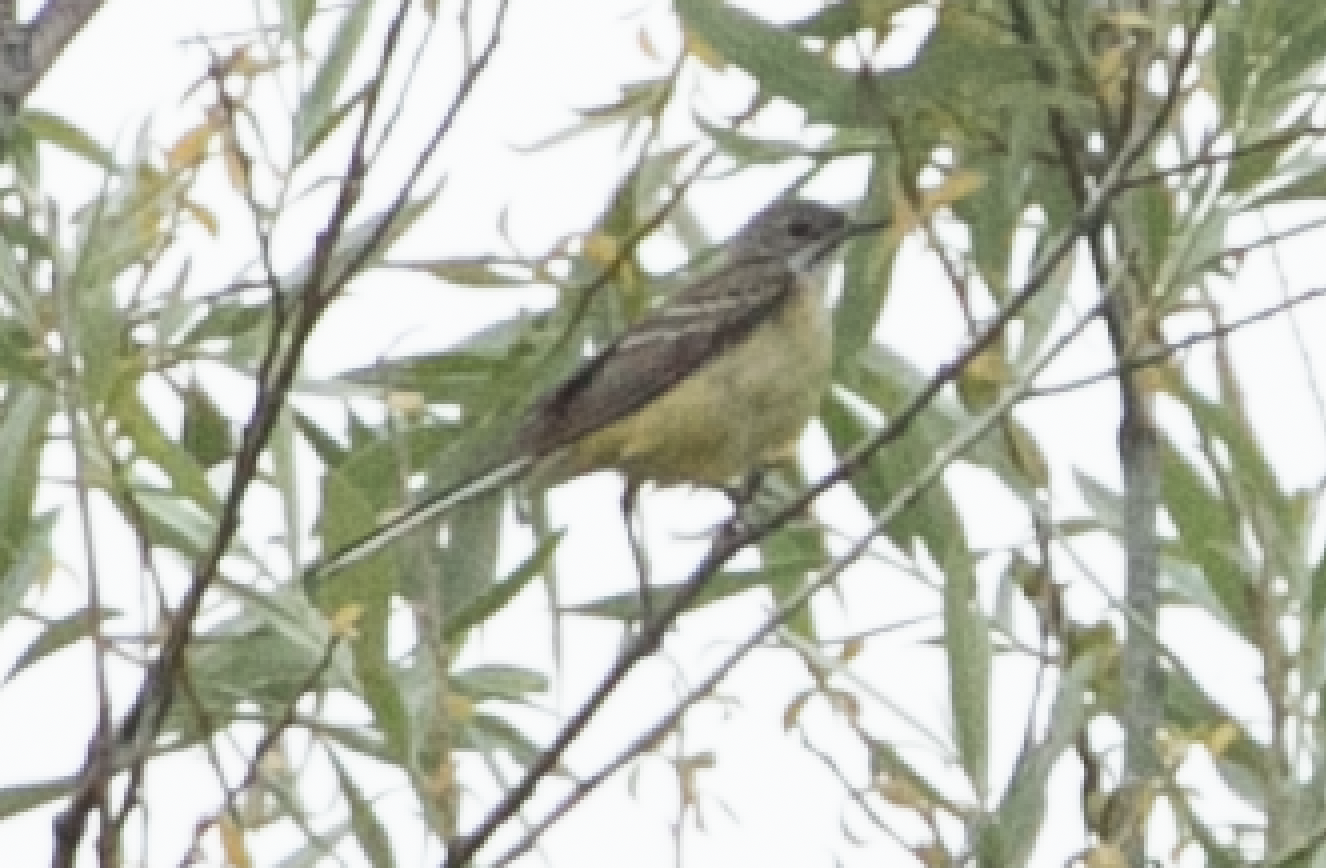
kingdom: Animalia
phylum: Chordata
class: Aves
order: Passeriformes
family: Motacillidae
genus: Motacilla
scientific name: Motacilla flava
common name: Western yellow wagtail
